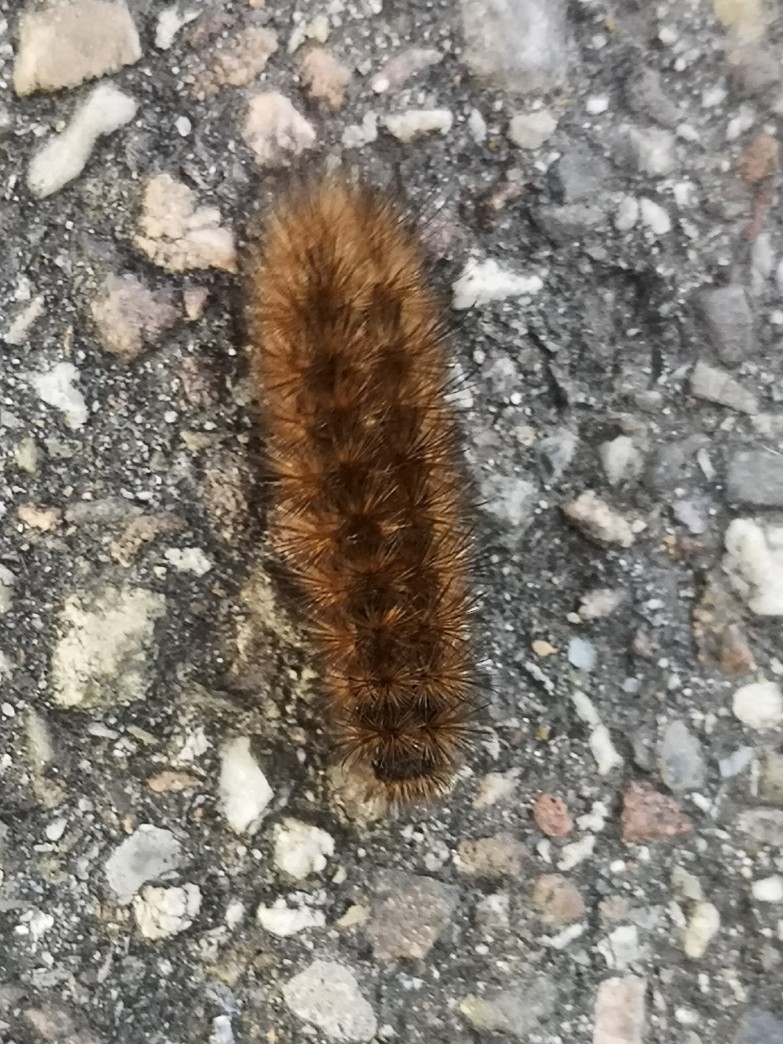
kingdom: Animalia
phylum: Arthropoda
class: Insecta
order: Lepidoptera
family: Erebidae
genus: Phragmatobia
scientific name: Phragmatobia fuliginosa
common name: Ruby tiger
